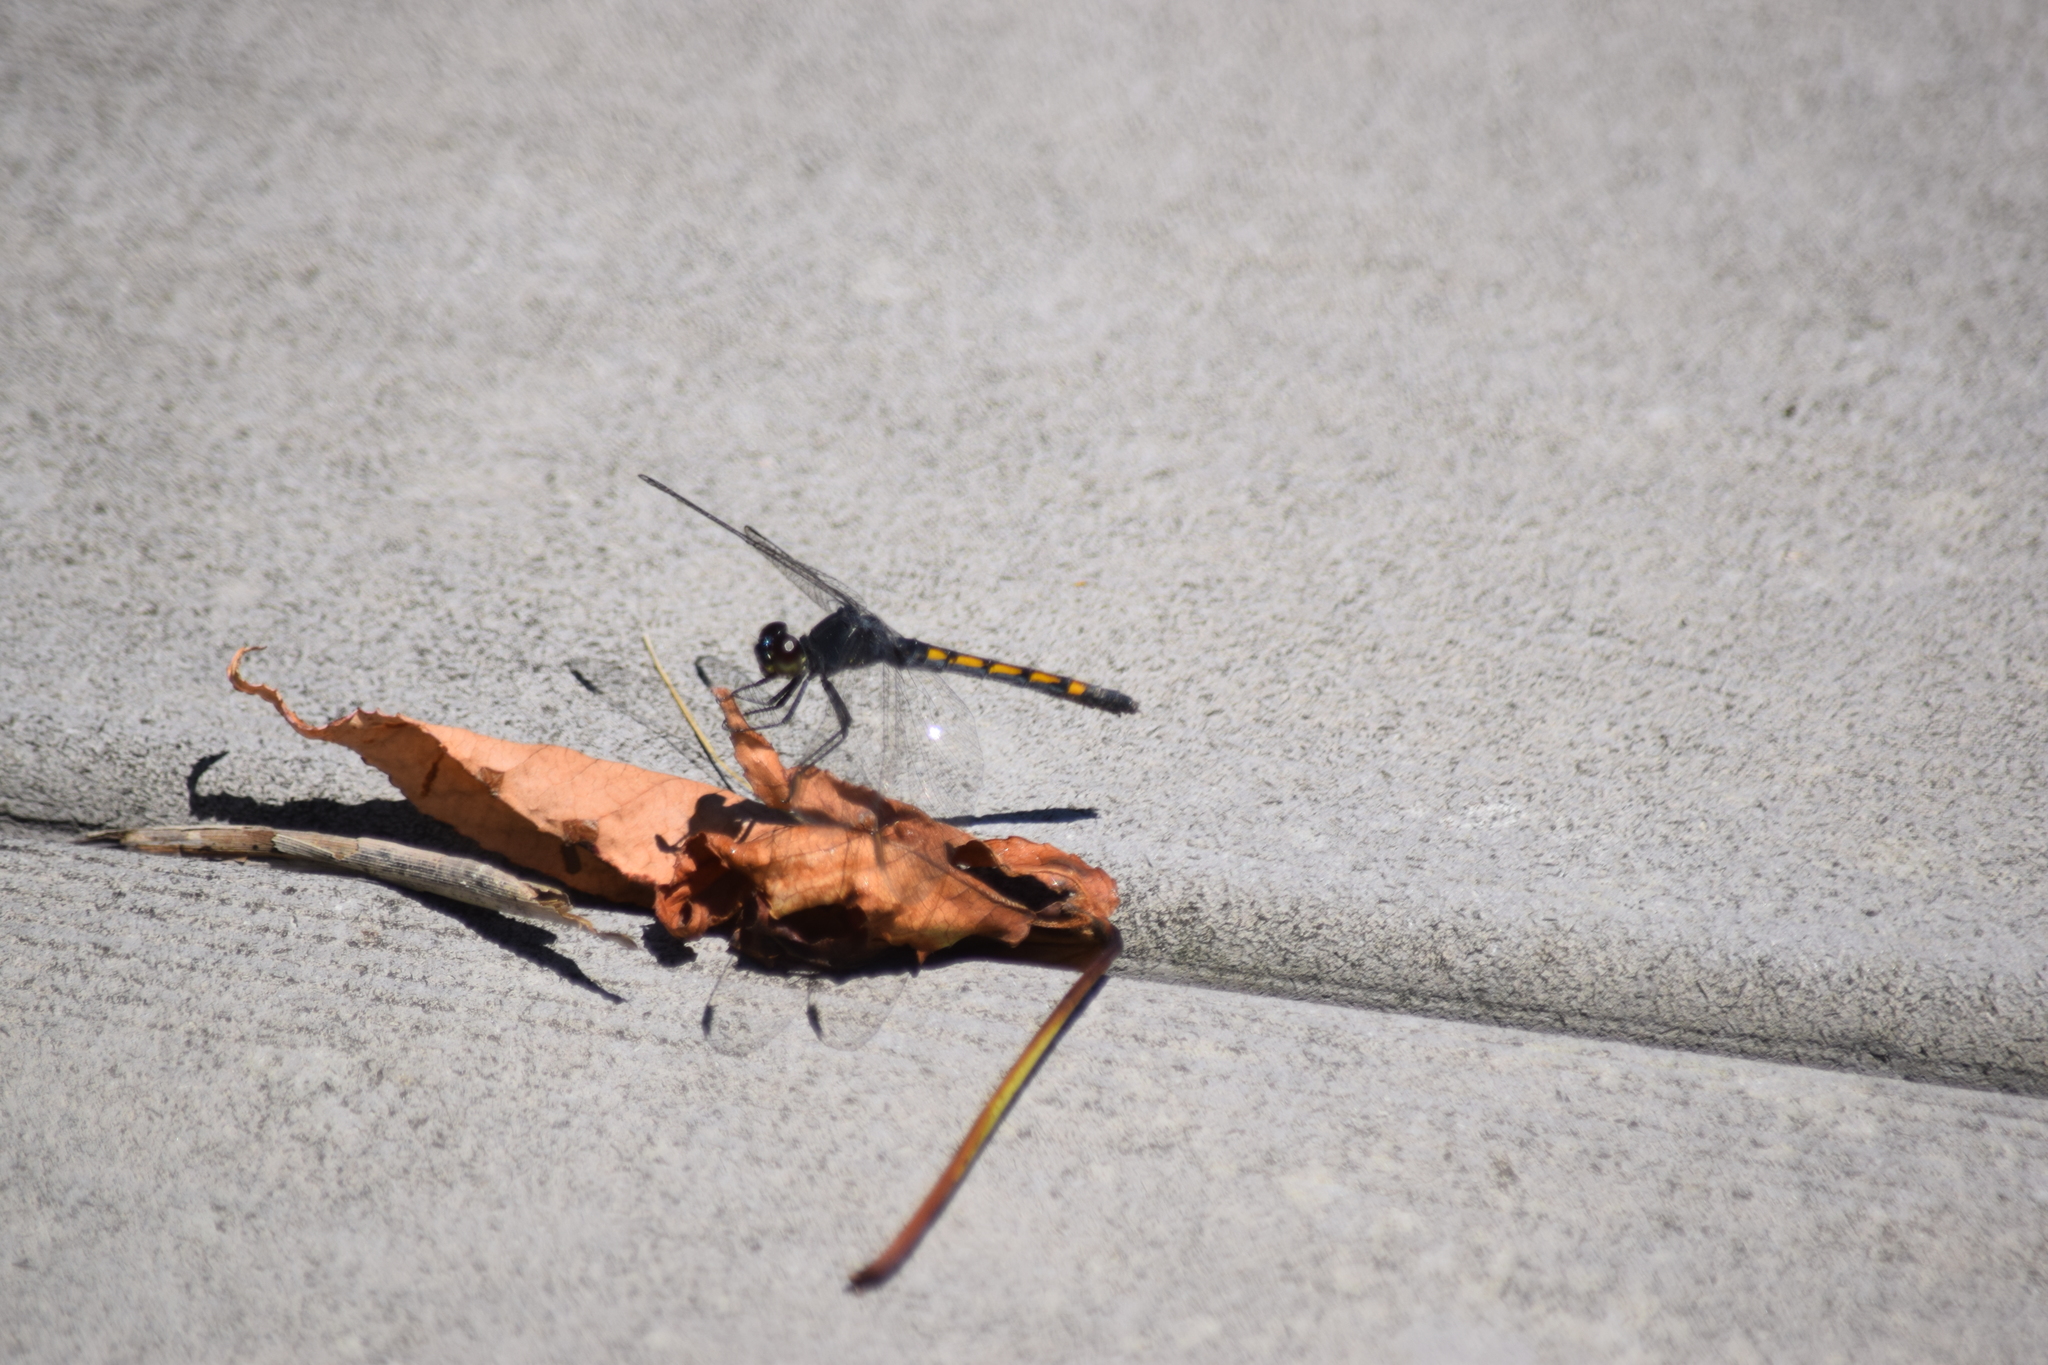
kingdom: Animalia
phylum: Arthropoda
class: Insecta
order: Odonata
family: Libellulidae
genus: Erythrodiplax
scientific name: Erythrodiplax berenice
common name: Seaside dragonlet
